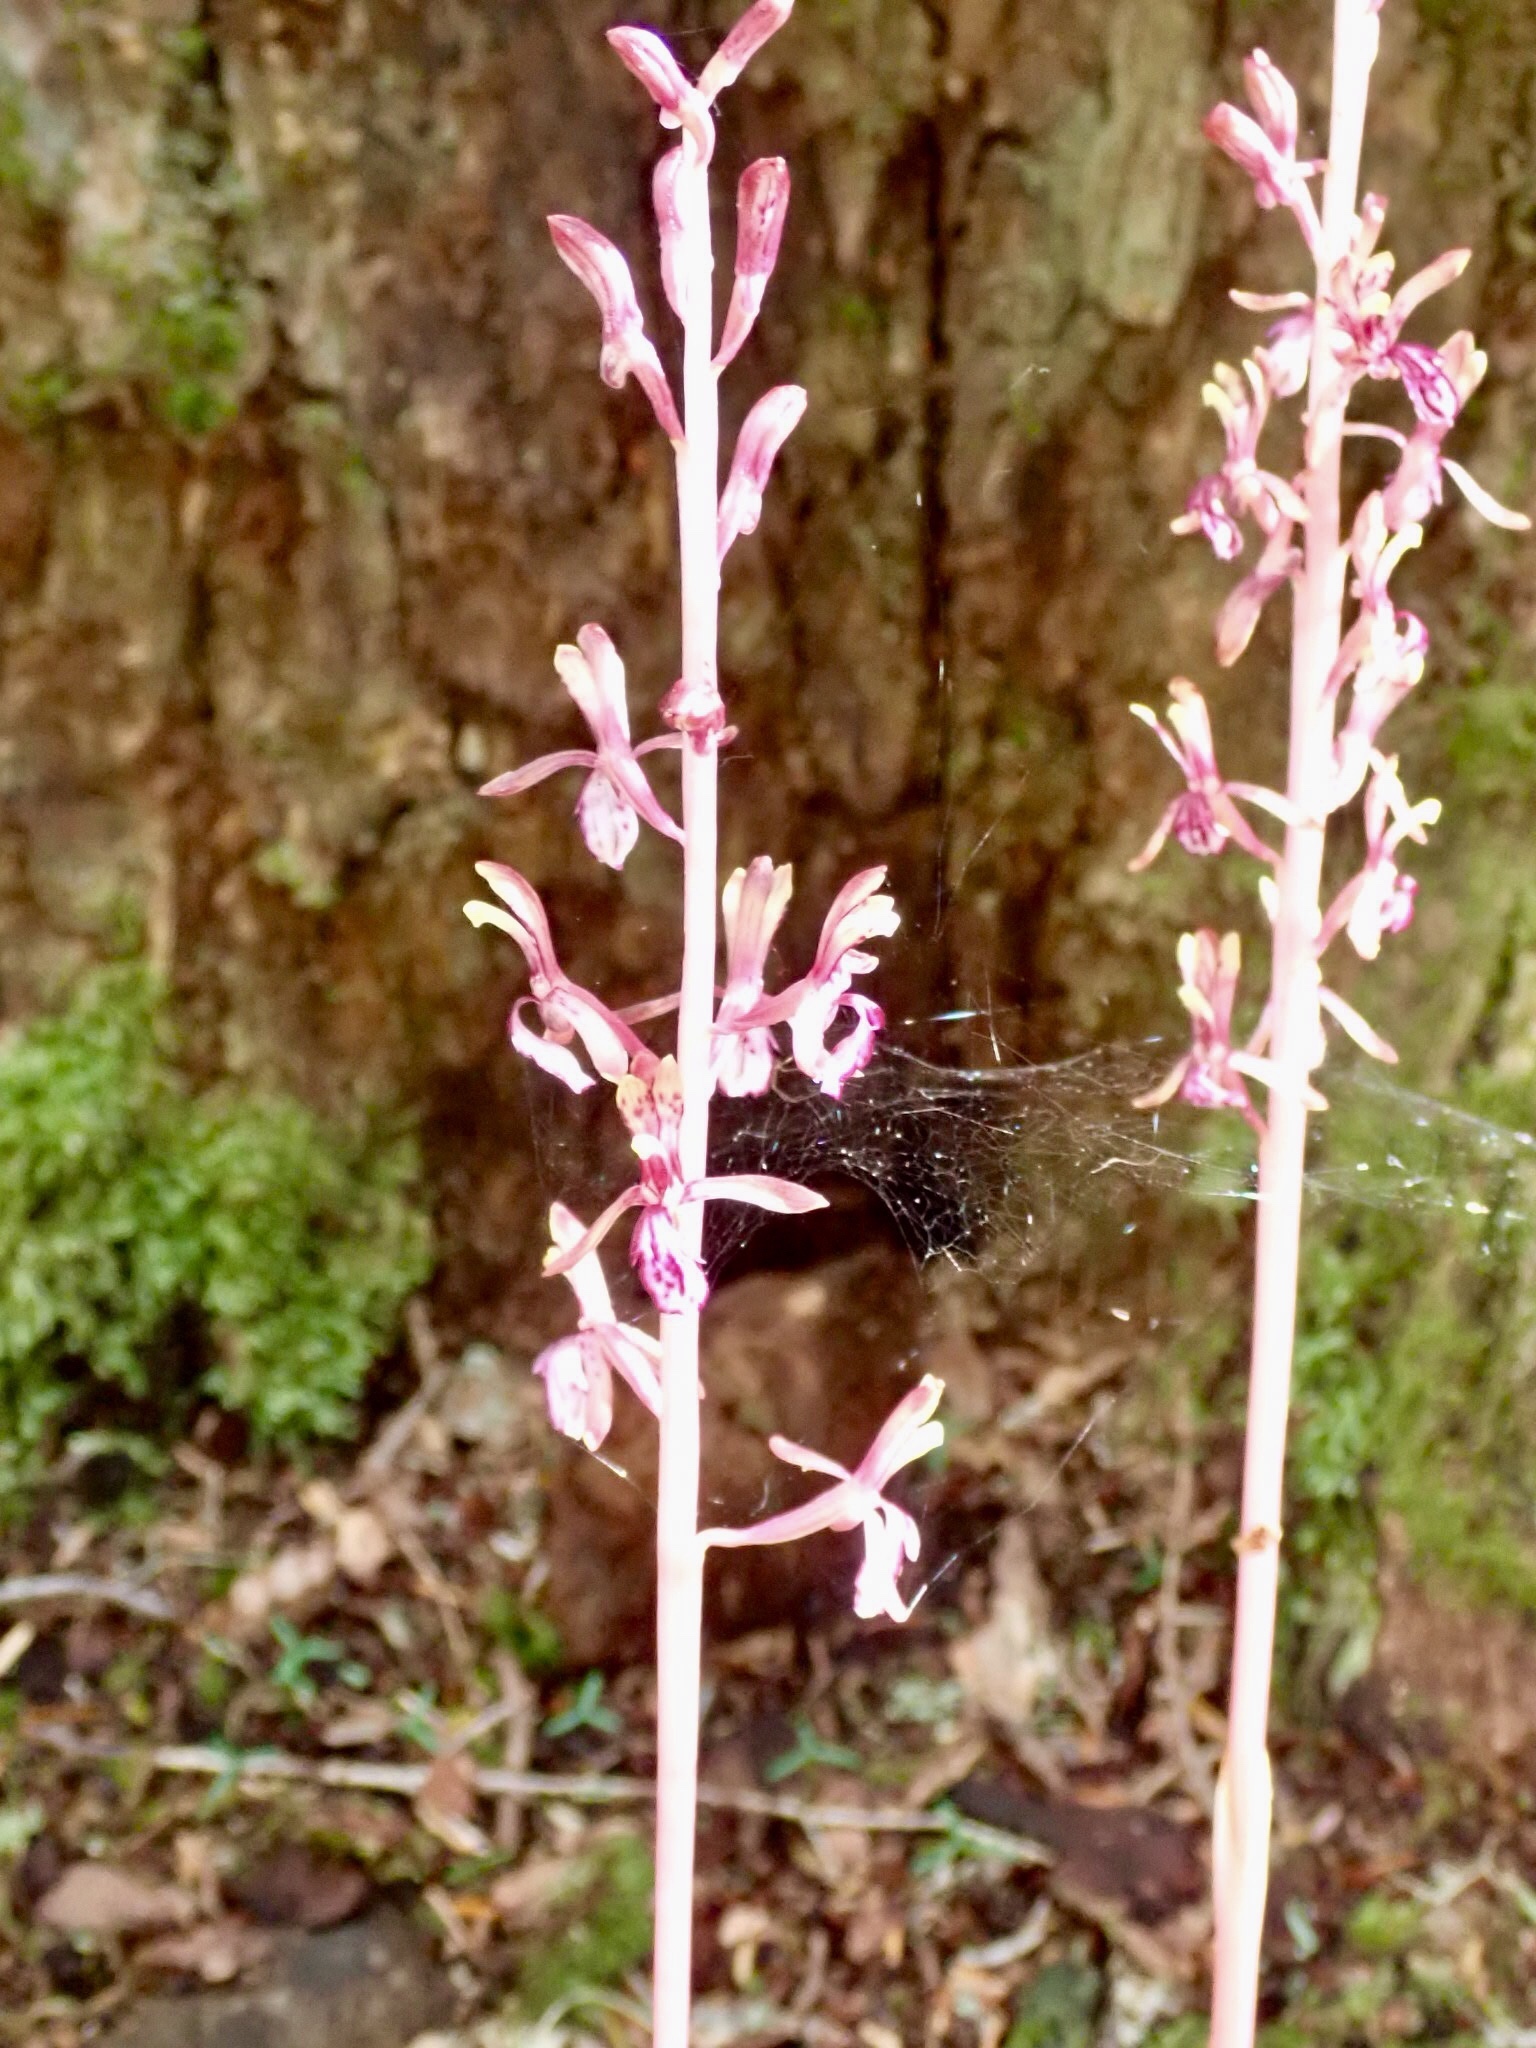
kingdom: Plantae
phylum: Tracheophyta
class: Liliopsida
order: Asparagales
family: Orchidaceae
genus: Corallorhiza
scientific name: Corallorhiza mertensiana
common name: Pacific coralroot
